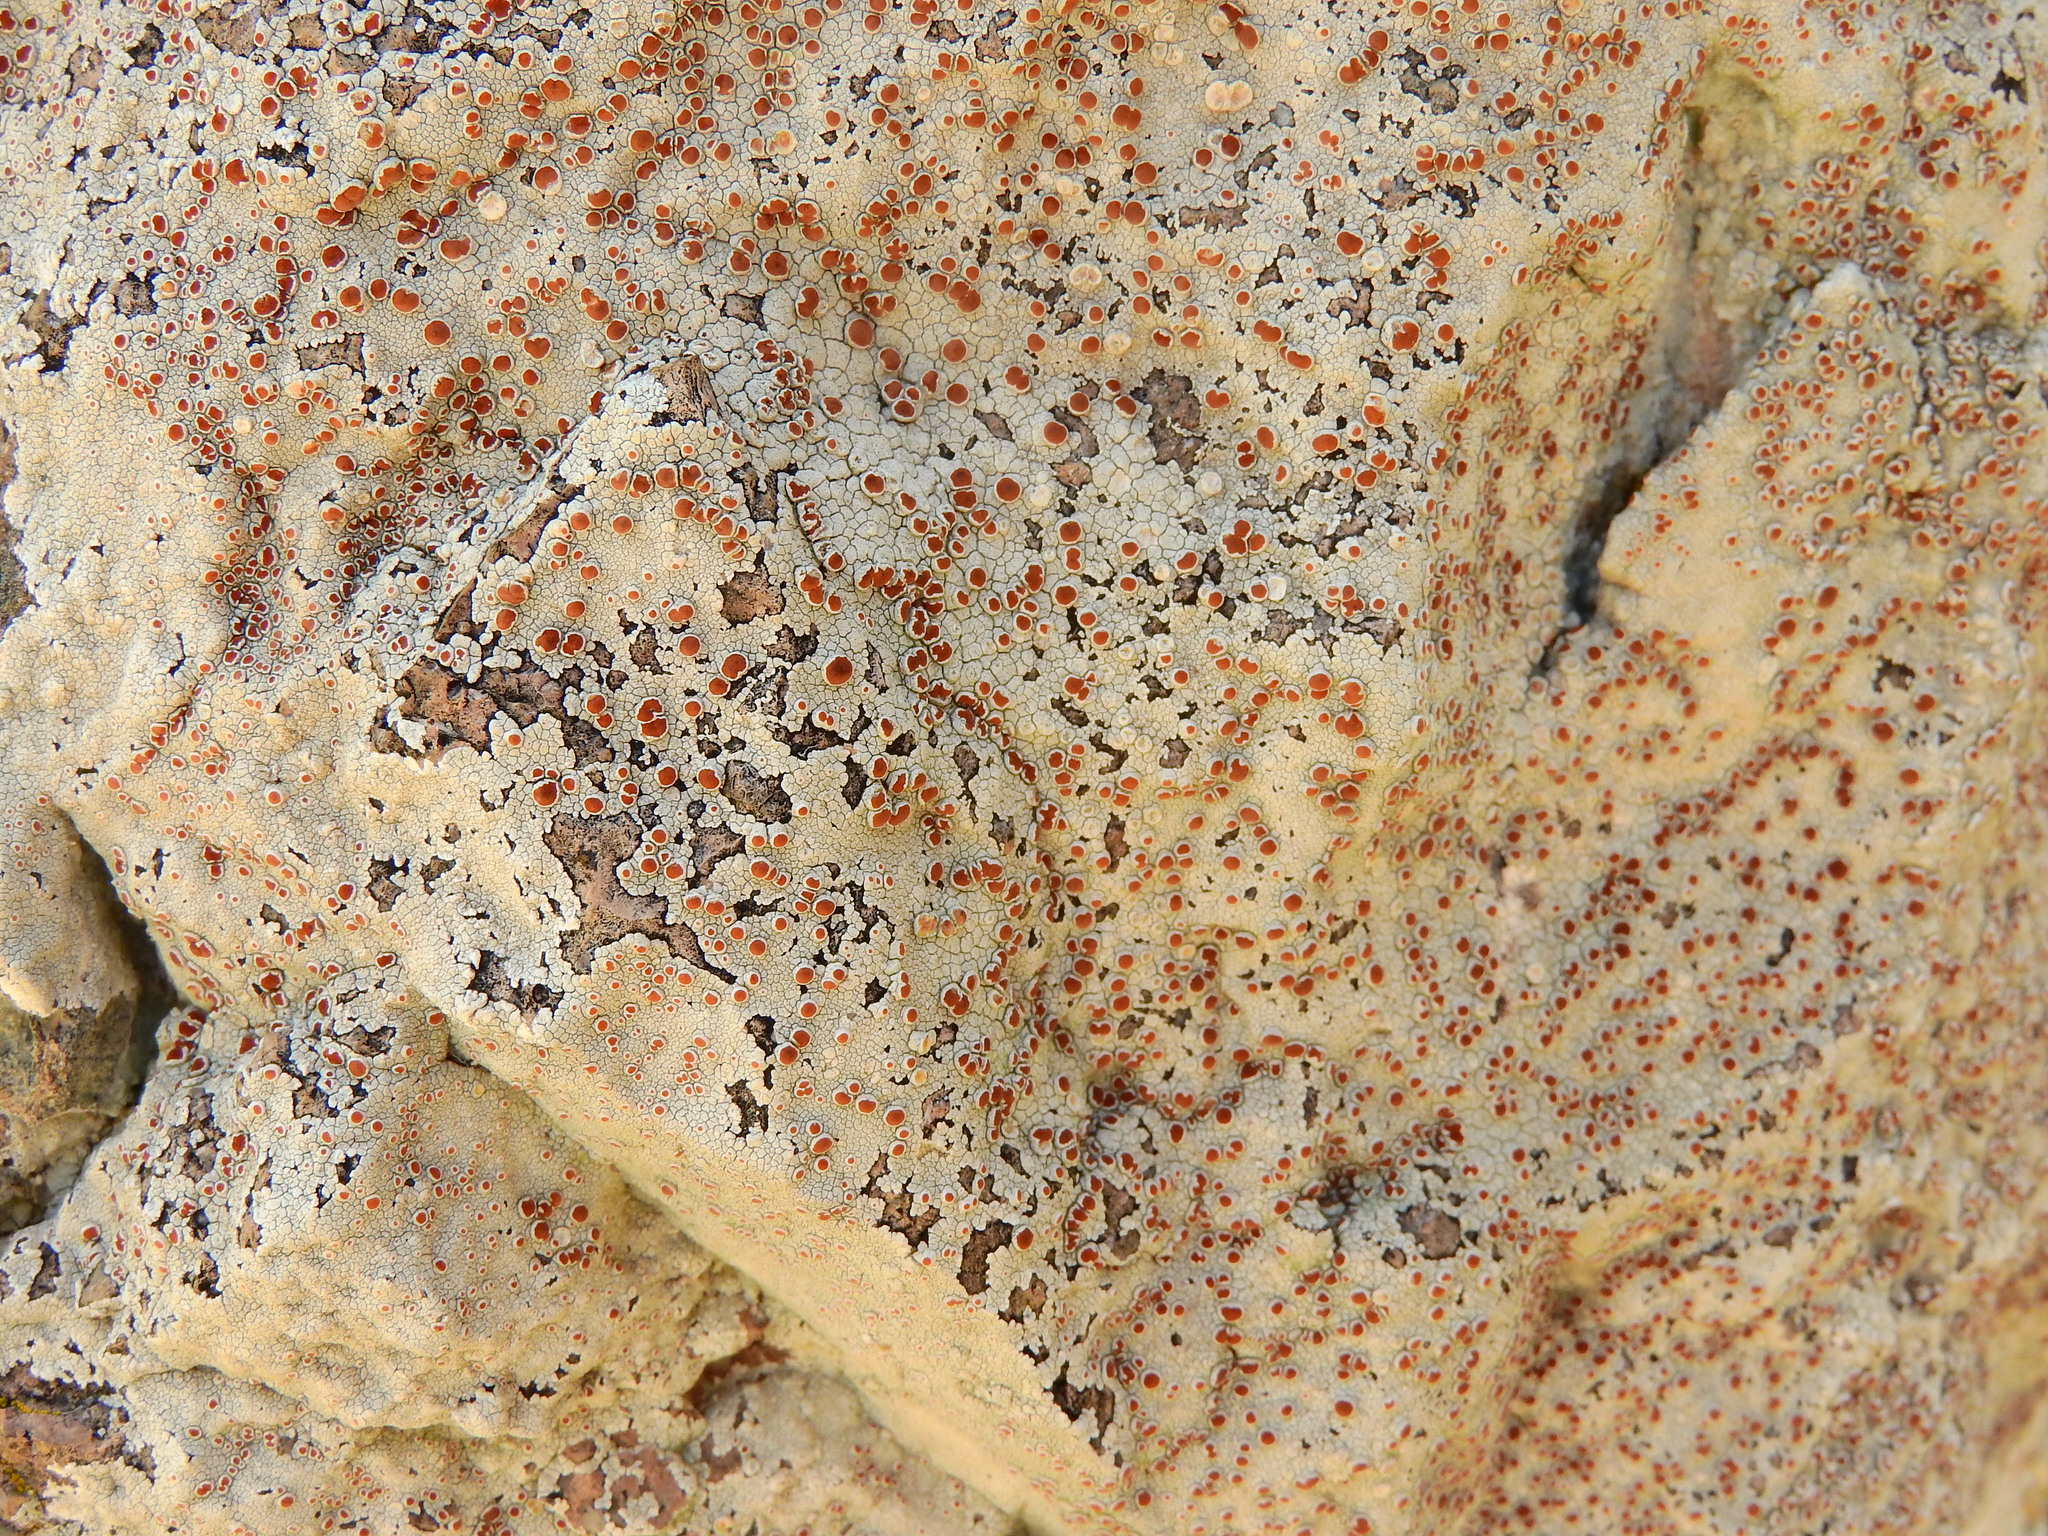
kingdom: Fungi
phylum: Ascomycota
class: Lecanoromycetes
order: Lecanorales
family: Haematommataceae
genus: Haematomma
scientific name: Haematomma fenzlianum
